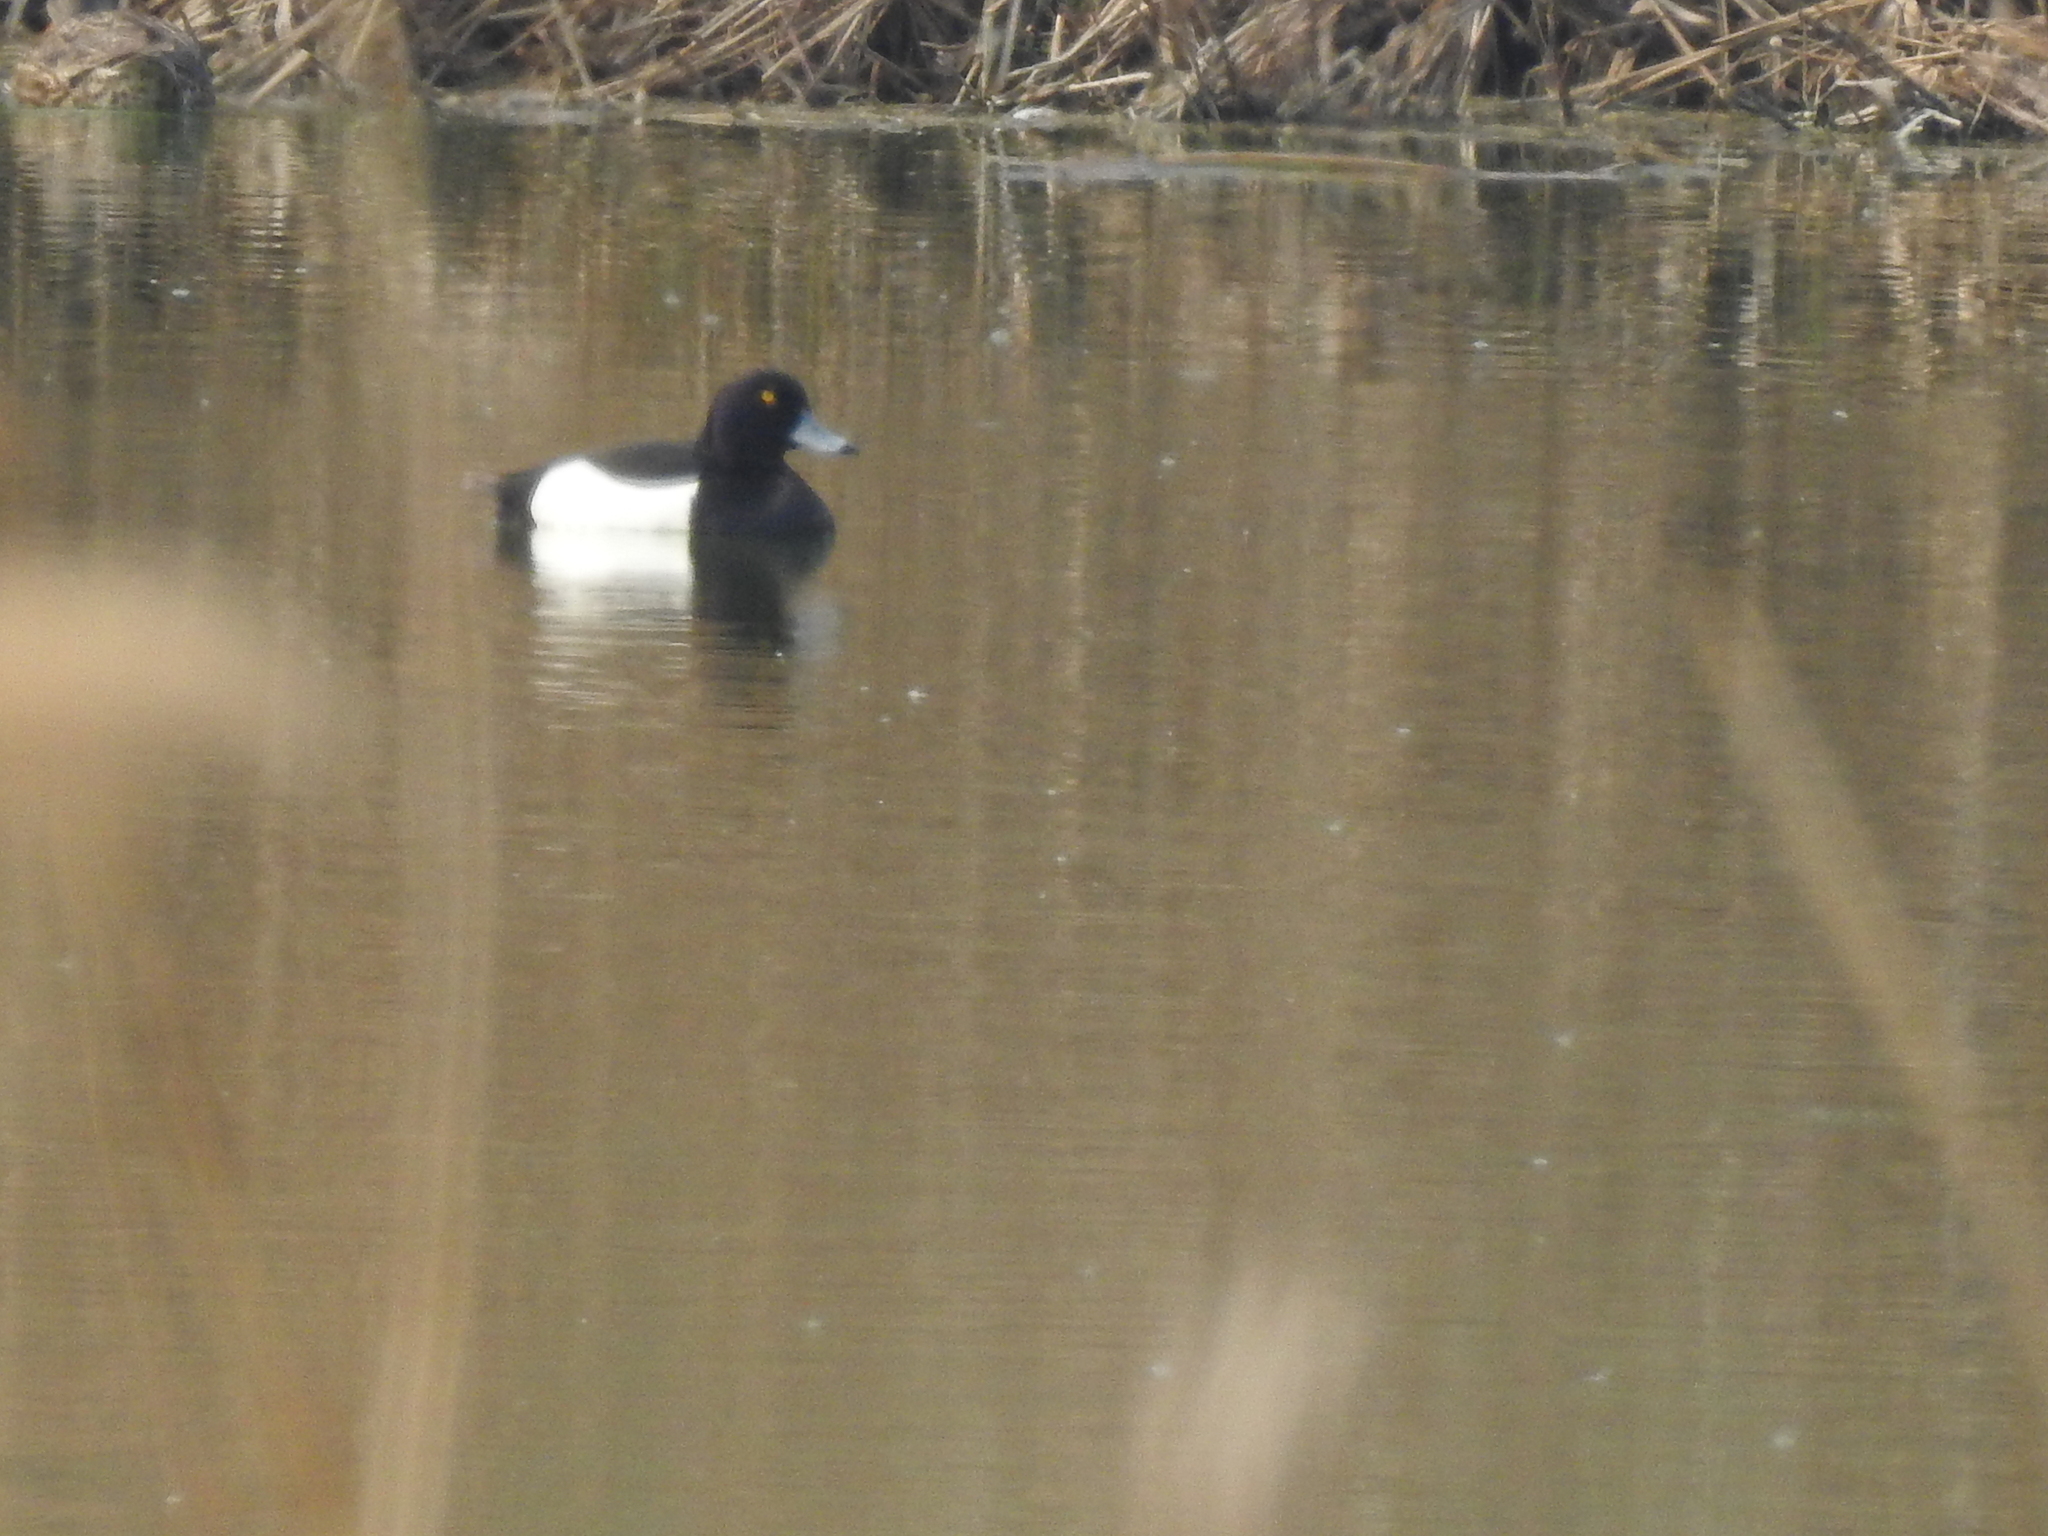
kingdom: Animalia
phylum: Chordata
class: Aves
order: Anseriformes
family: Anatidae
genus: Aythya
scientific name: Aythya fuligula
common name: Tufted duck
